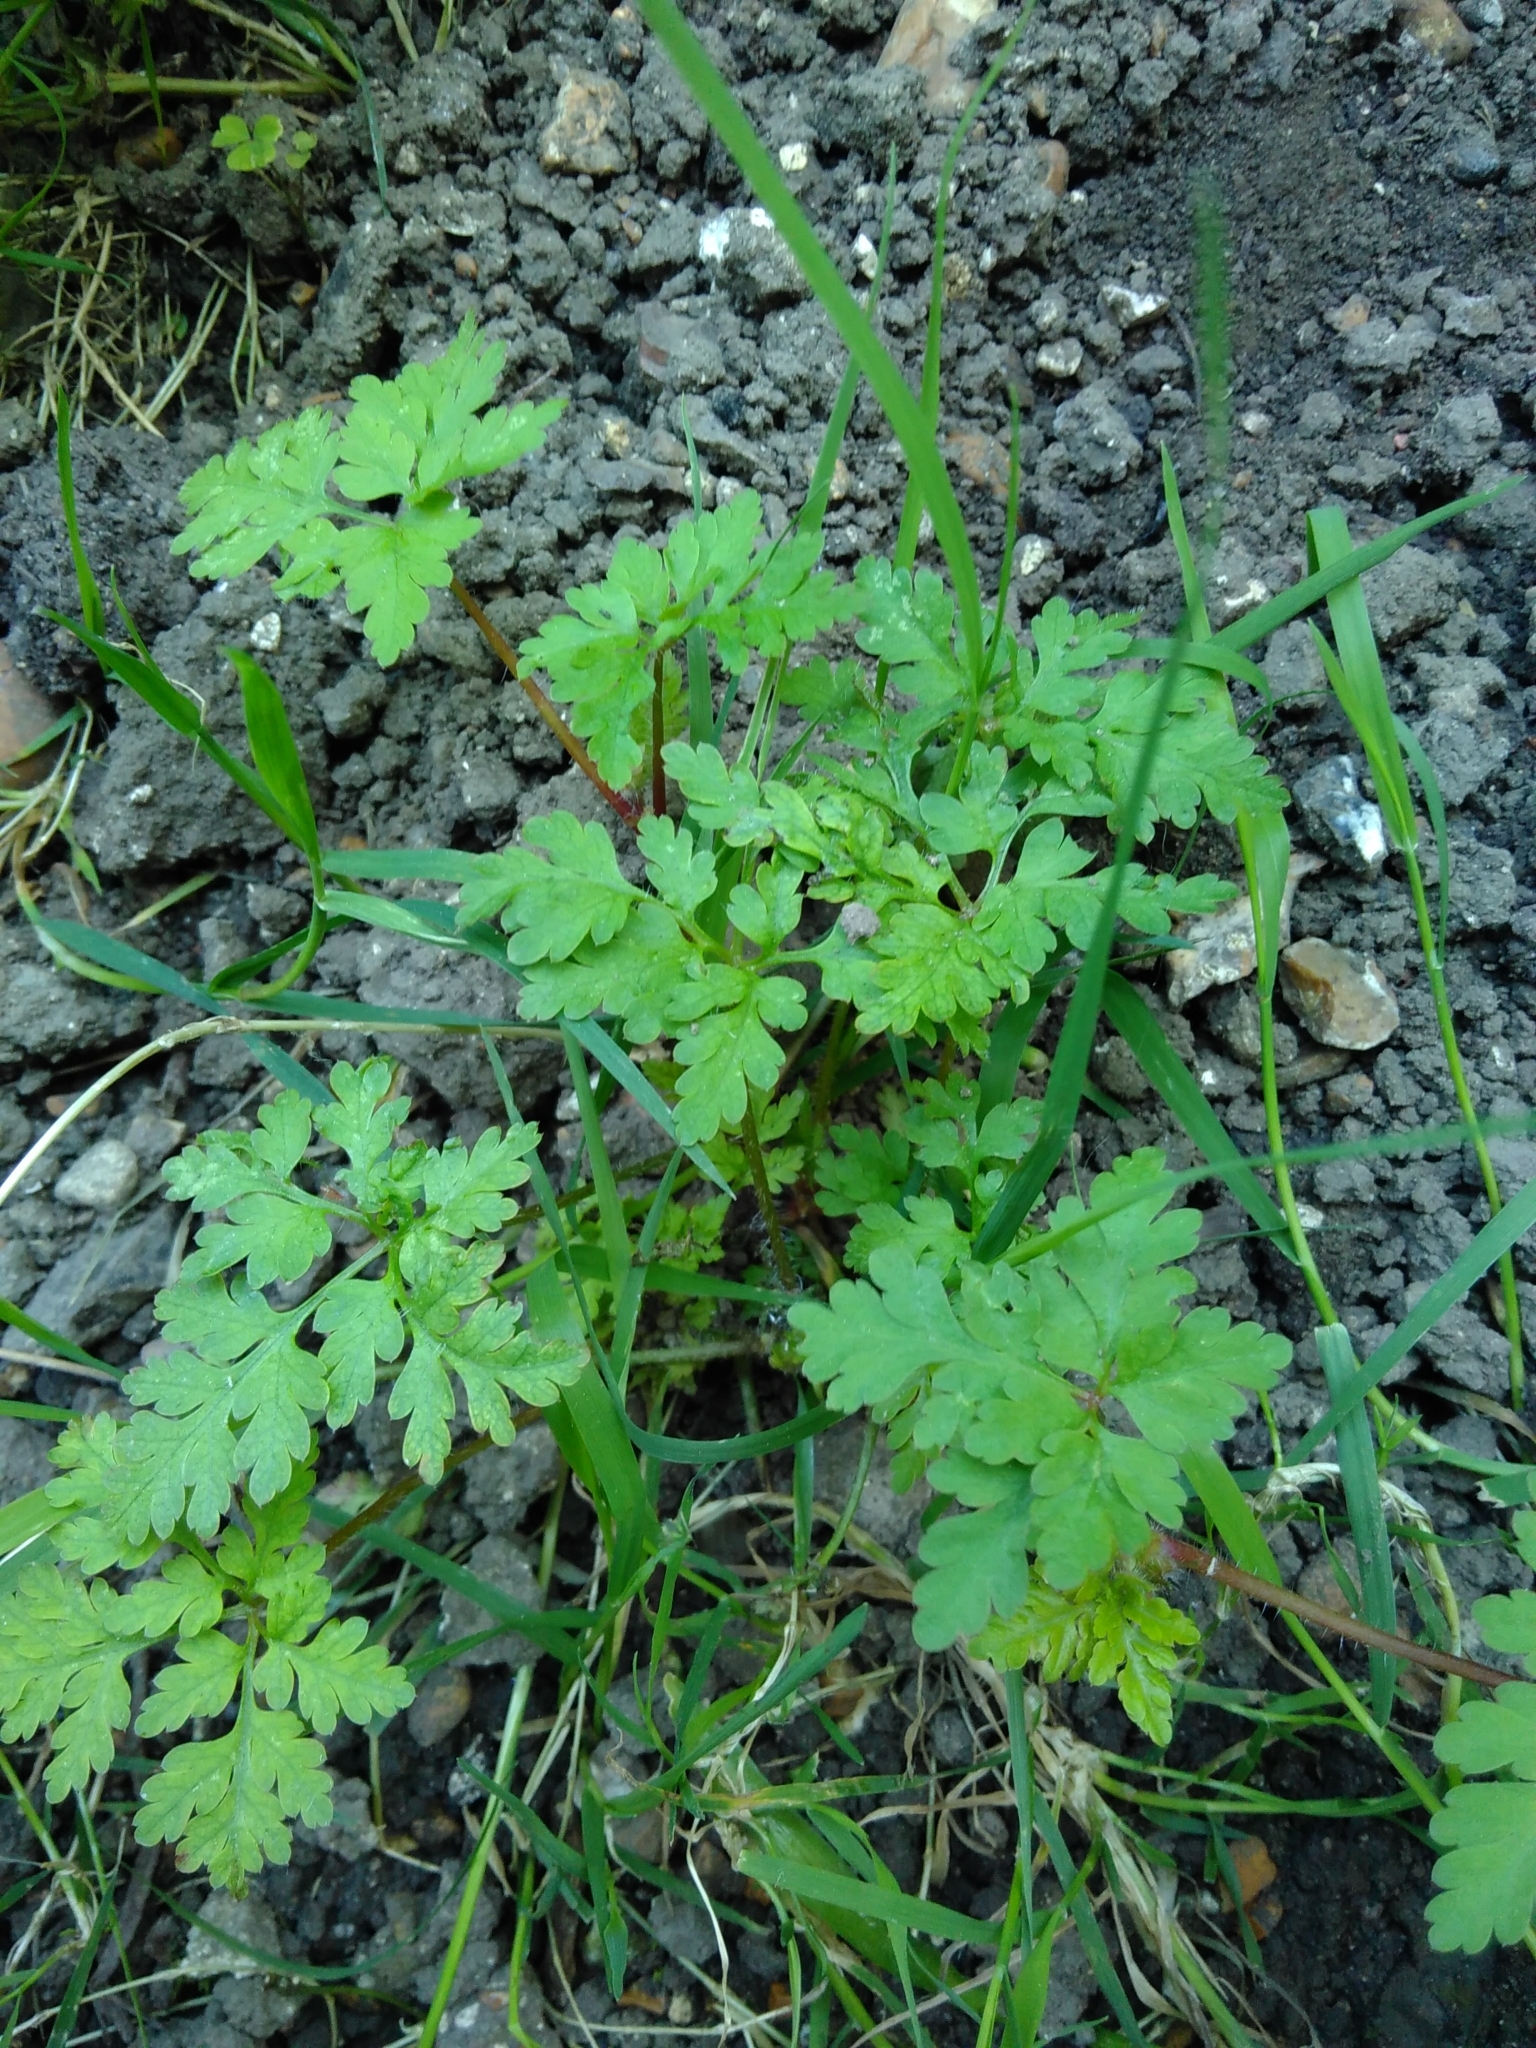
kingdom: Plantae
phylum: Tracheophyta
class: Magnoliopsida
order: Geraniales
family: Geraniaceae
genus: Geranium
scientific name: Geranium robertianum
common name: Herb-robert
